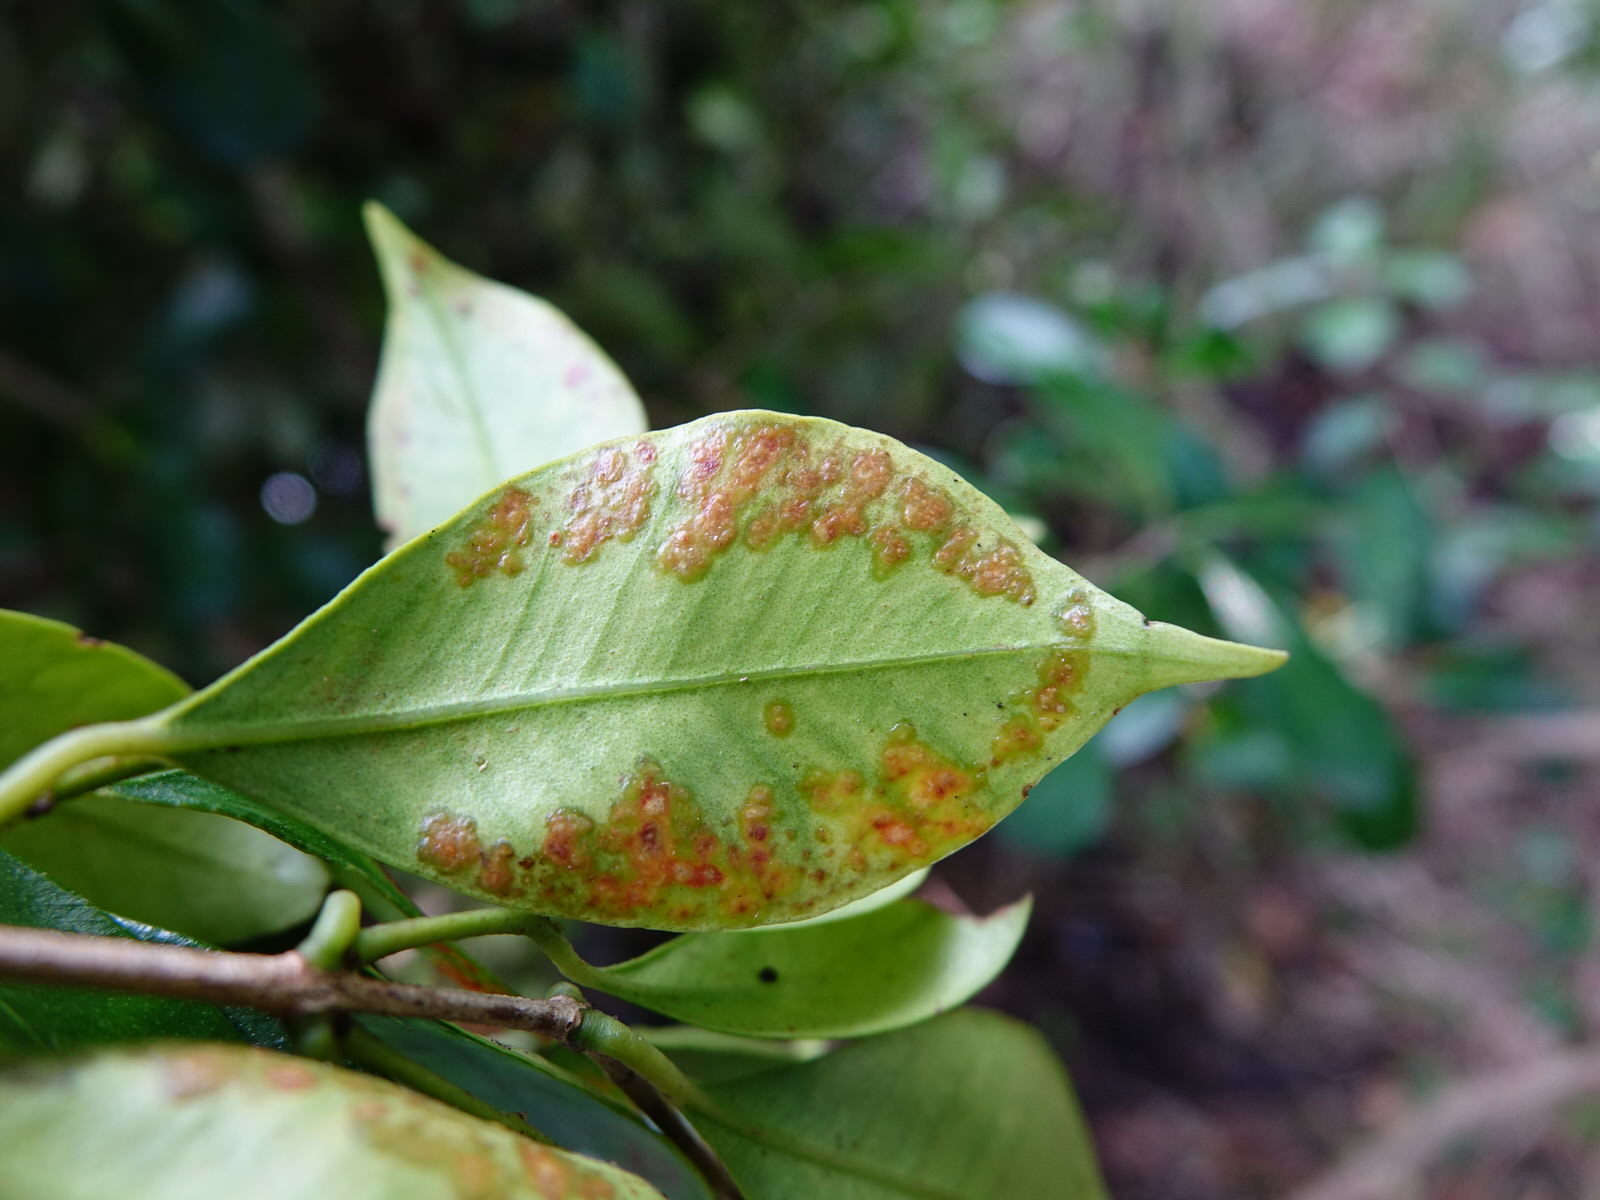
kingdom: Plantae
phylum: Tracheophyta
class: Magnoliopsida
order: Myrtales
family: Myrtaceae
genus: Syzygium
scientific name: Syzygium smithii
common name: Lilly-pilly
